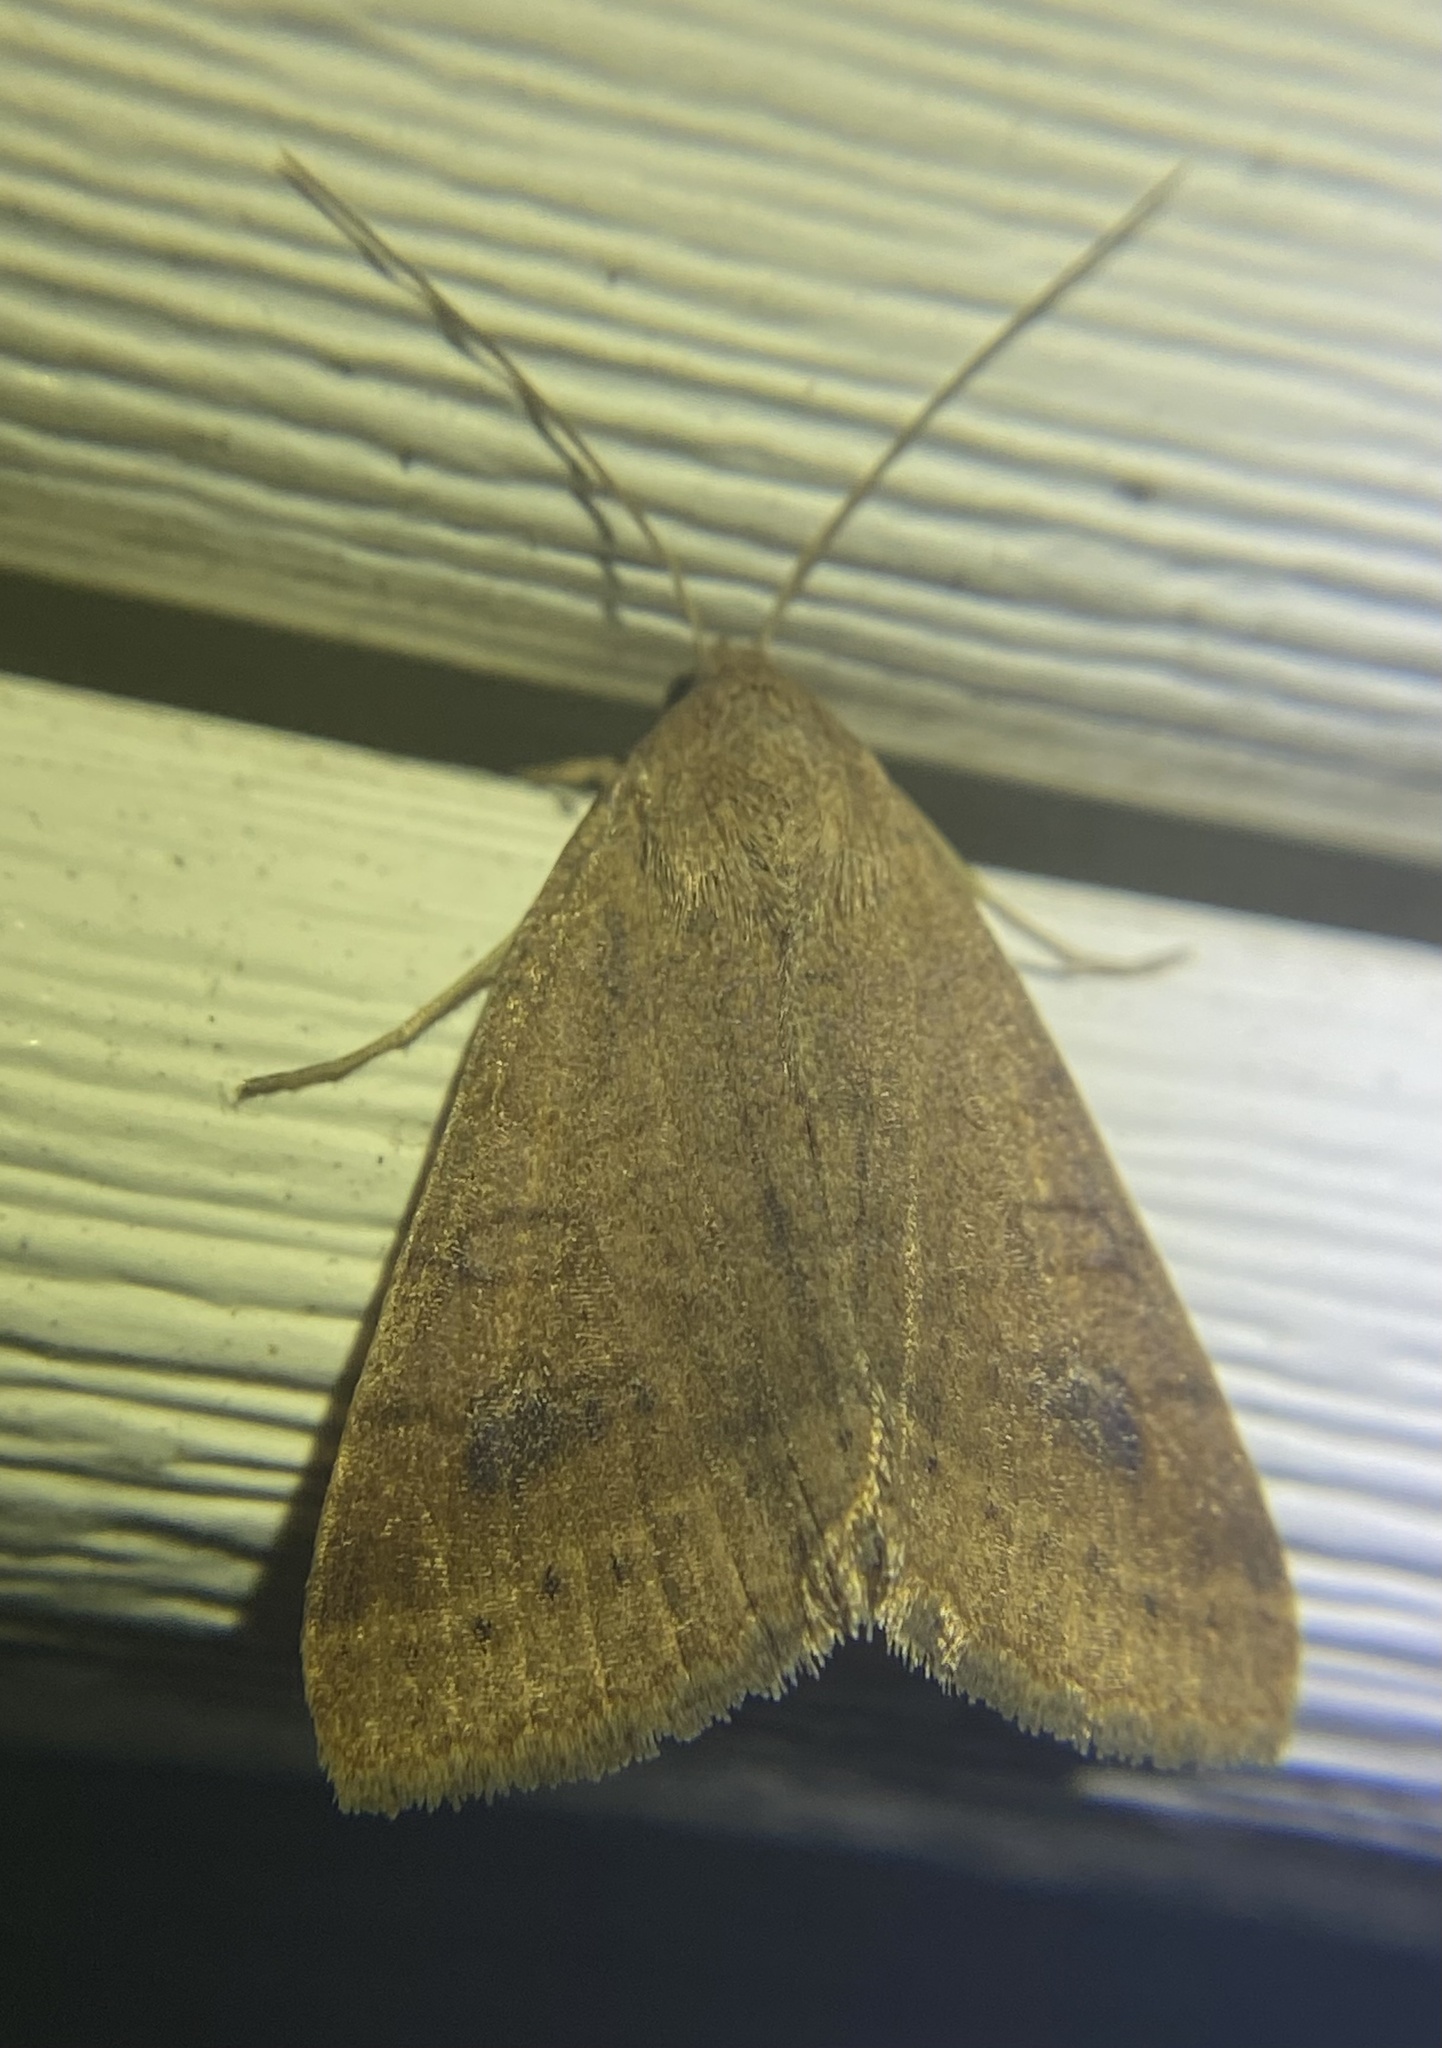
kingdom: Animalia
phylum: Arthropoda
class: Insecta
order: Lepidoptera
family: Erebidae
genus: Caenurgia
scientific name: Caenurgia chloropha
